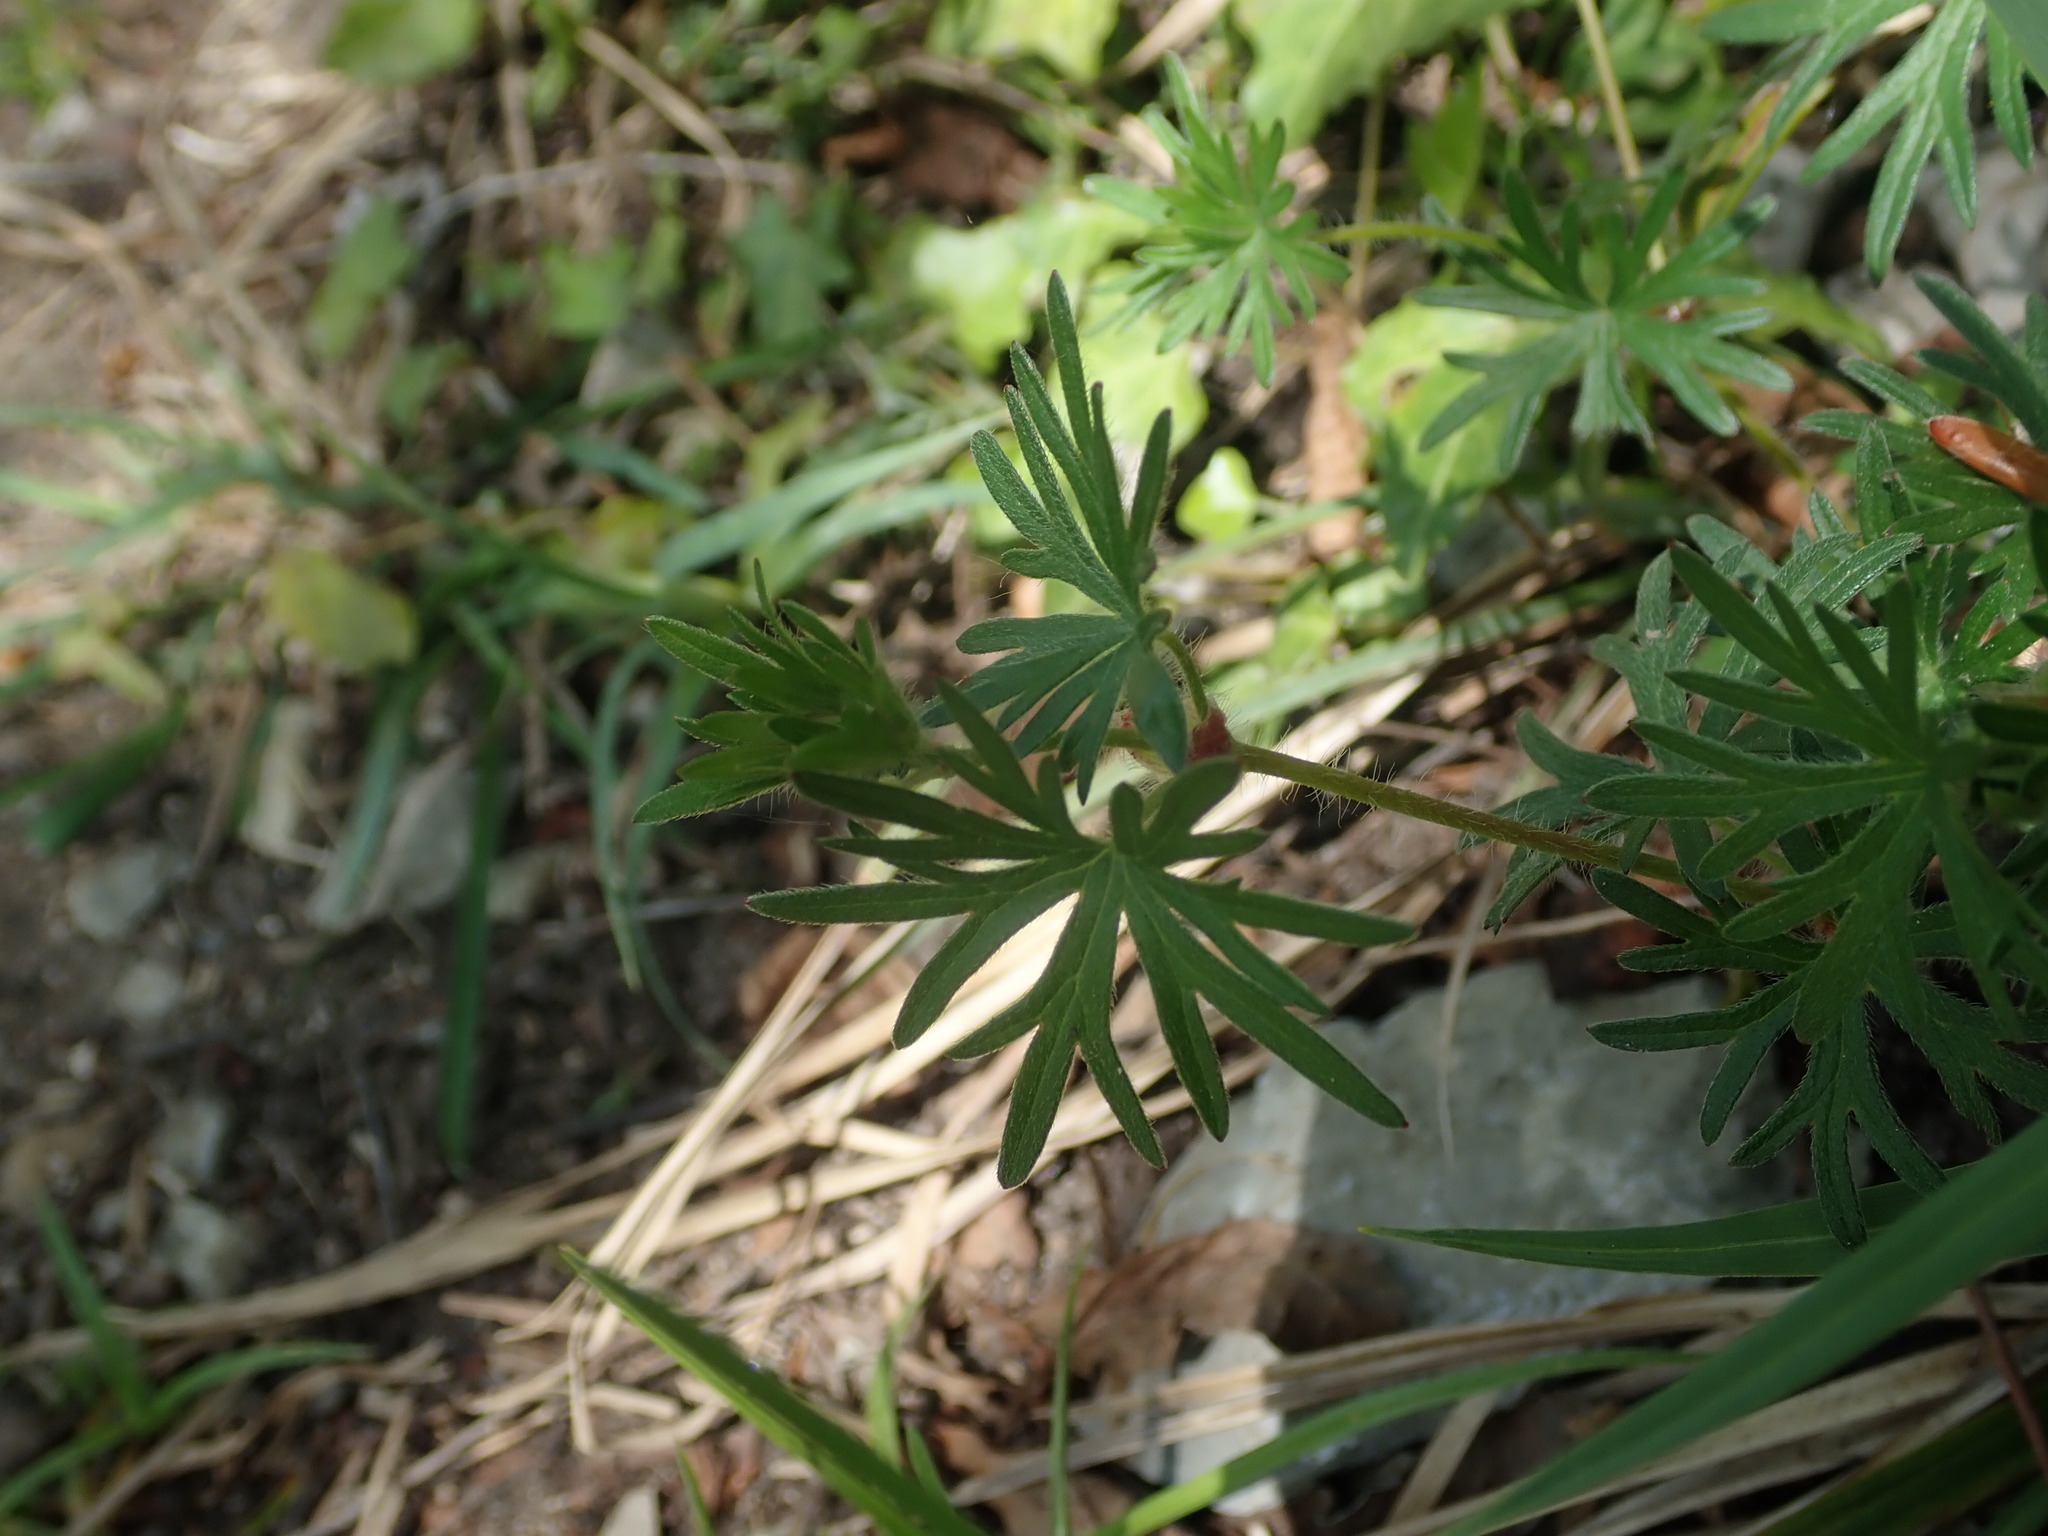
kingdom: Plantae
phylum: Tracheophyta
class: Magnoliopsida
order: Geraniales
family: Geraniaceae
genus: Geranium
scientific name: Geranium sanguineum
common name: Bloody crane's-bill
